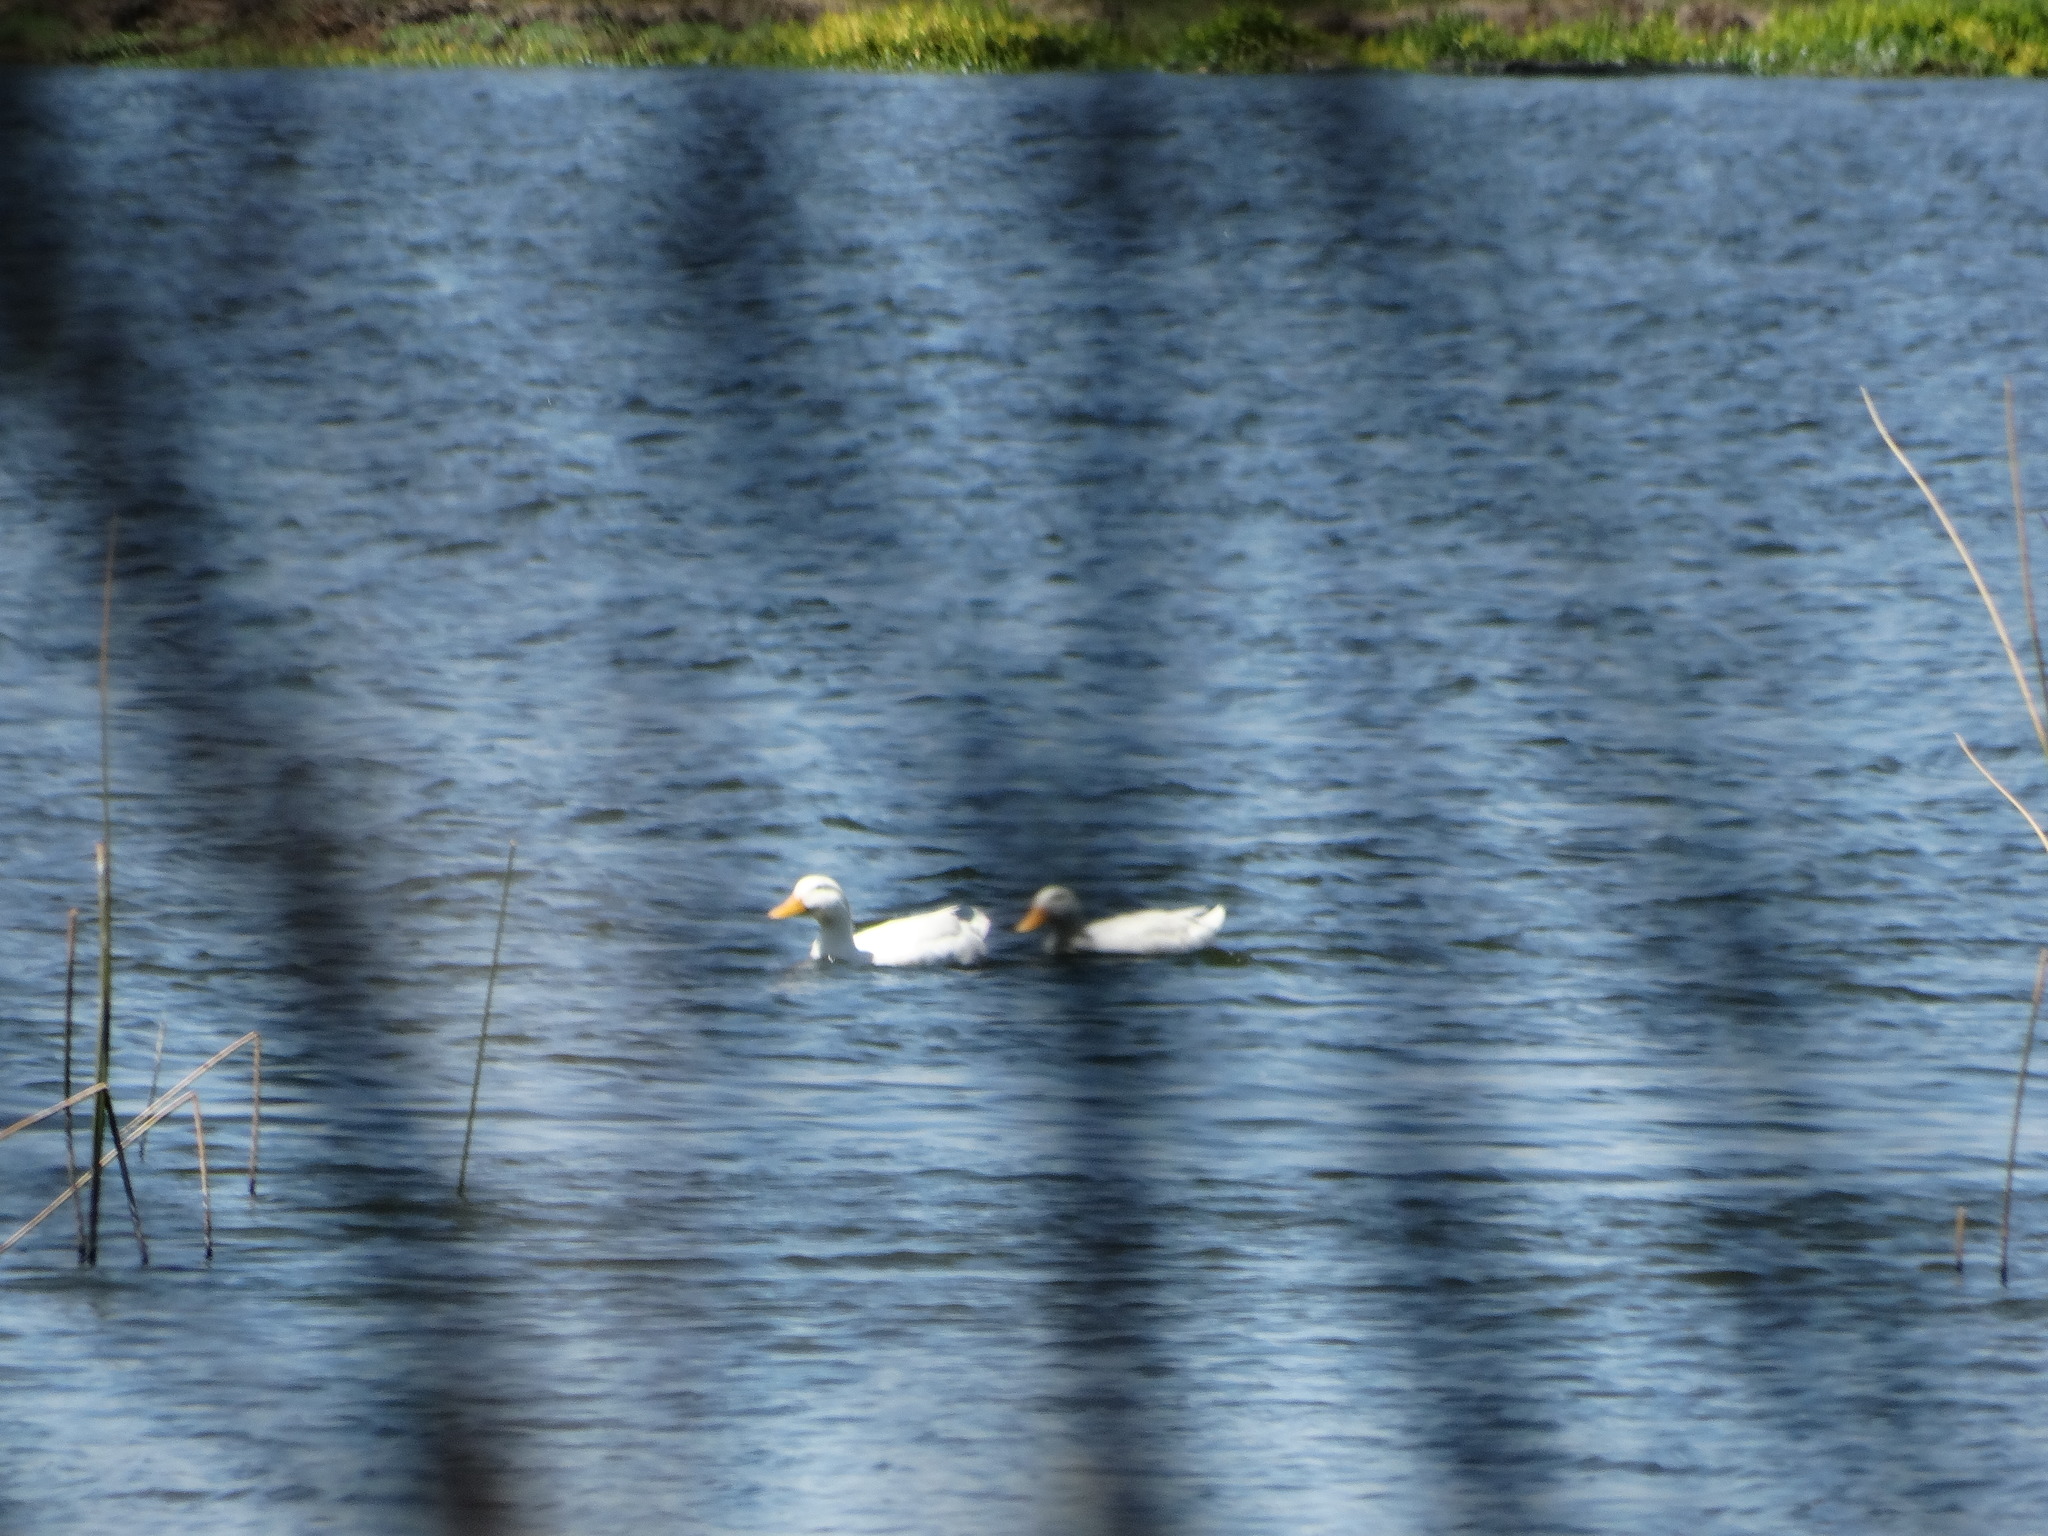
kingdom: Animalia
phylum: Chordata
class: Aves
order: Anseriformes
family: Anatidae
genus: Anas
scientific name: Anas platyrhynchos
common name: Mallard
